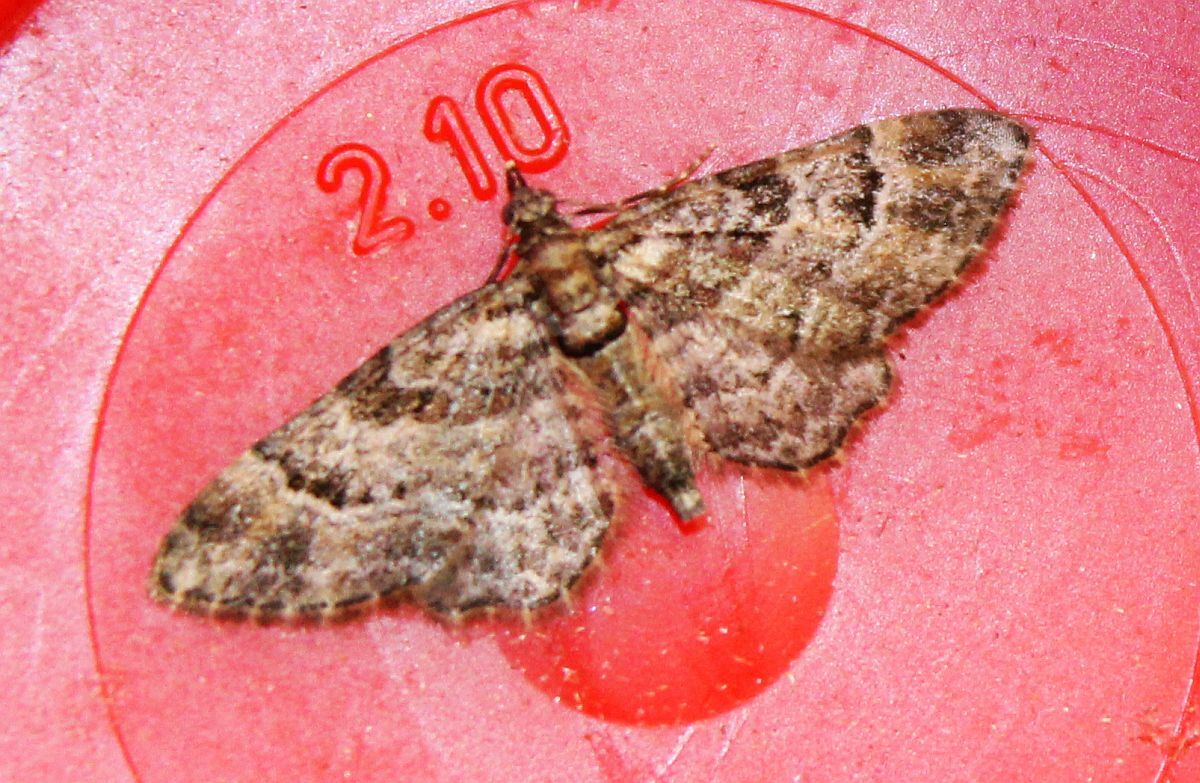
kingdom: Animalia
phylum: Arthropoda
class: Insecta
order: Lepidoptera
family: Geometridae
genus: Gymnoscelis
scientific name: Gymnoscelis rufifasciata
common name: Double-striped pug
